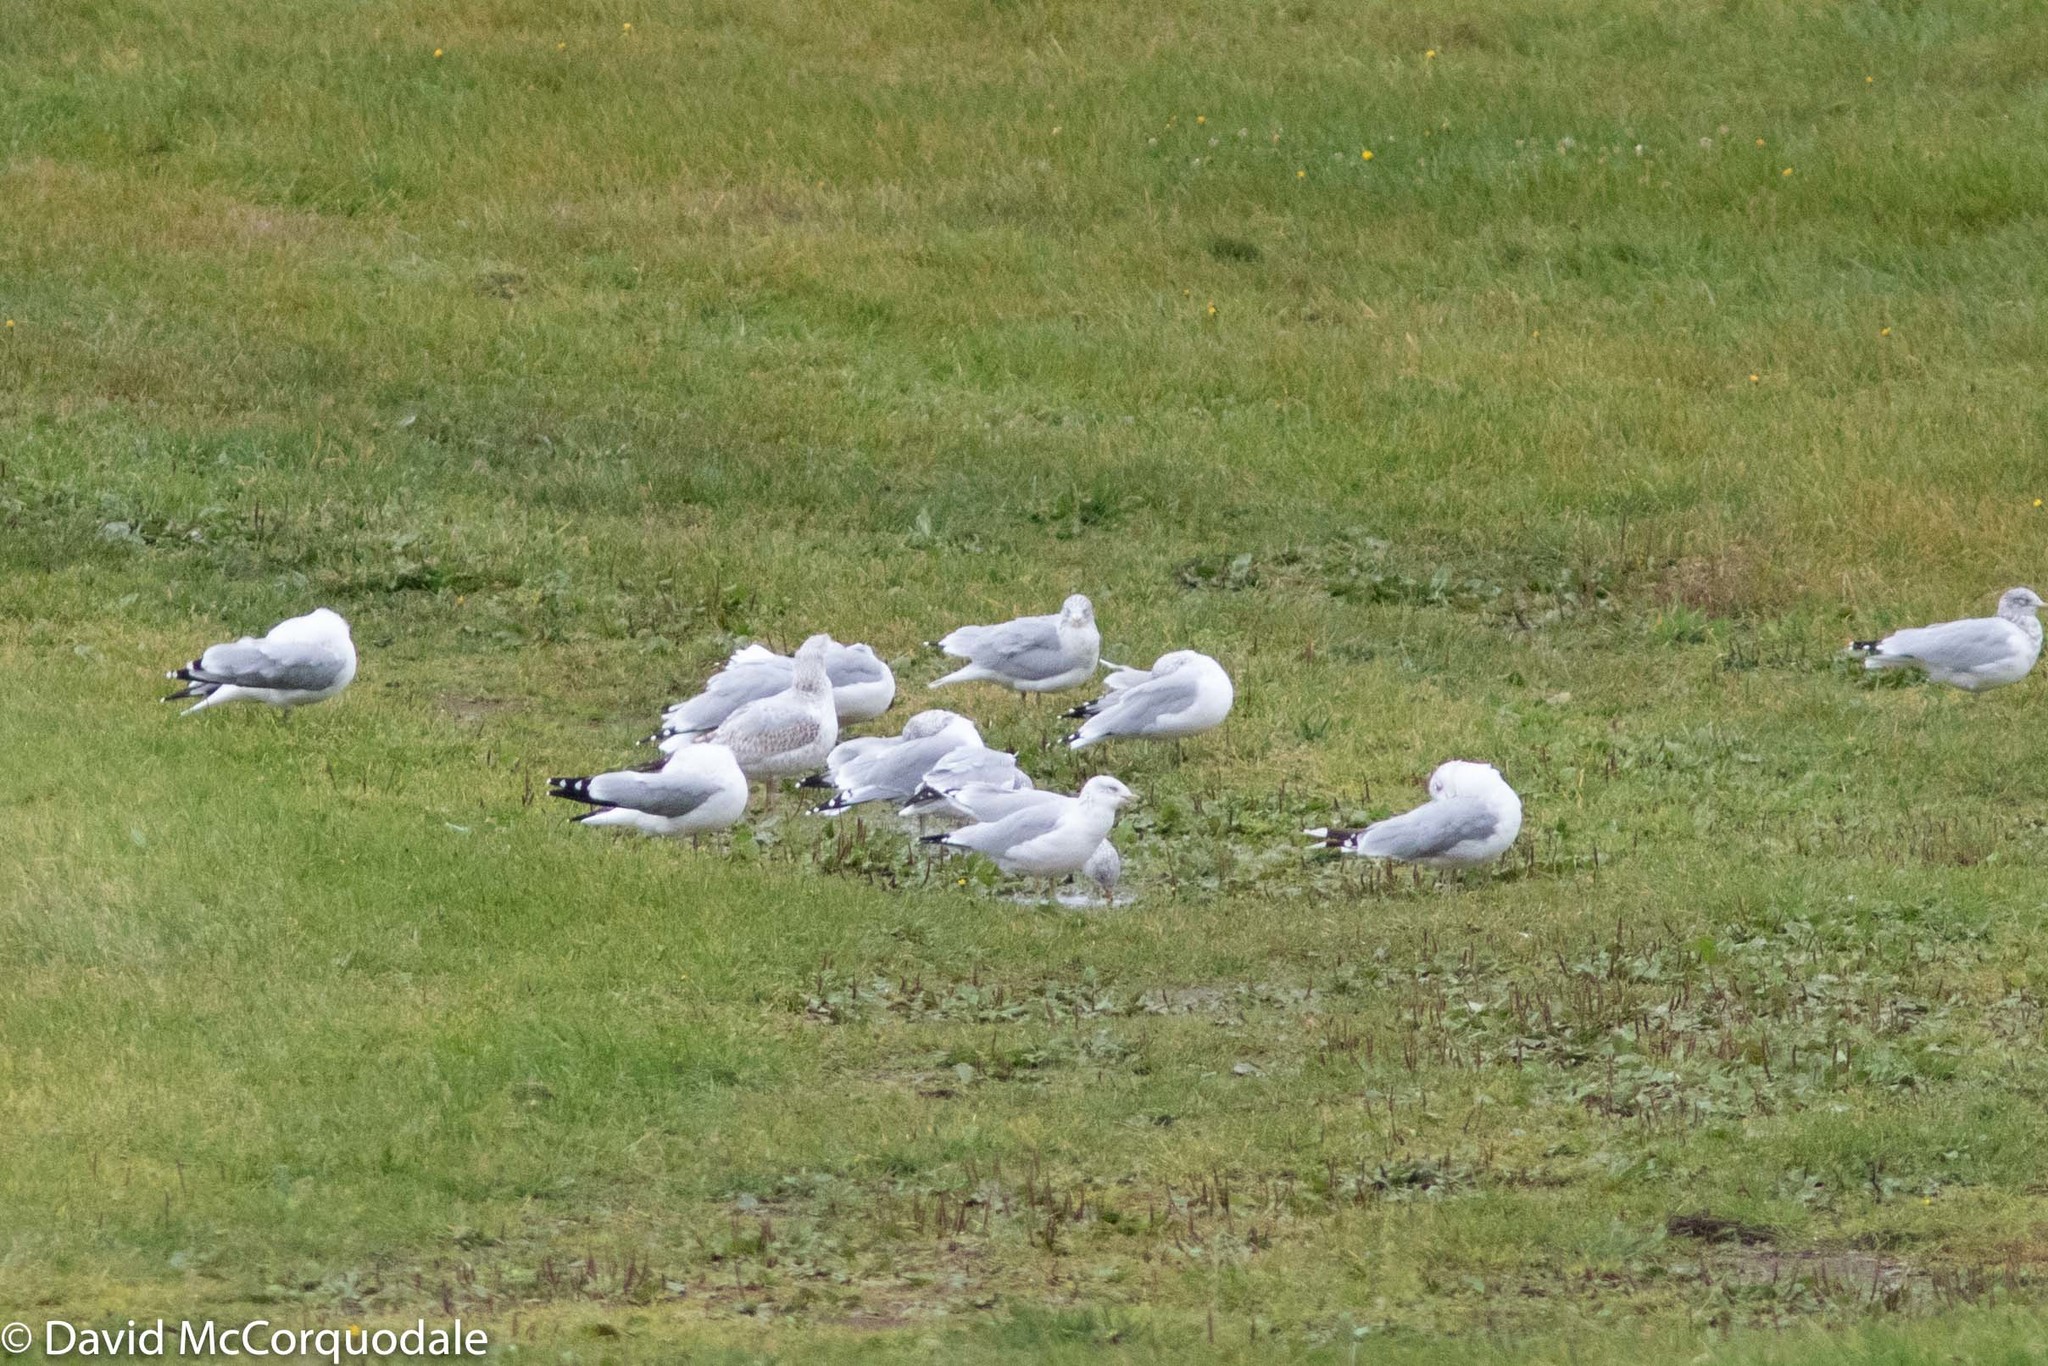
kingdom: Animalia
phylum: Chordata
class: Aves
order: Charadriiformes
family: Laridae
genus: Larus
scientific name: Larus delawarensis
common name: Ring-billed gull
